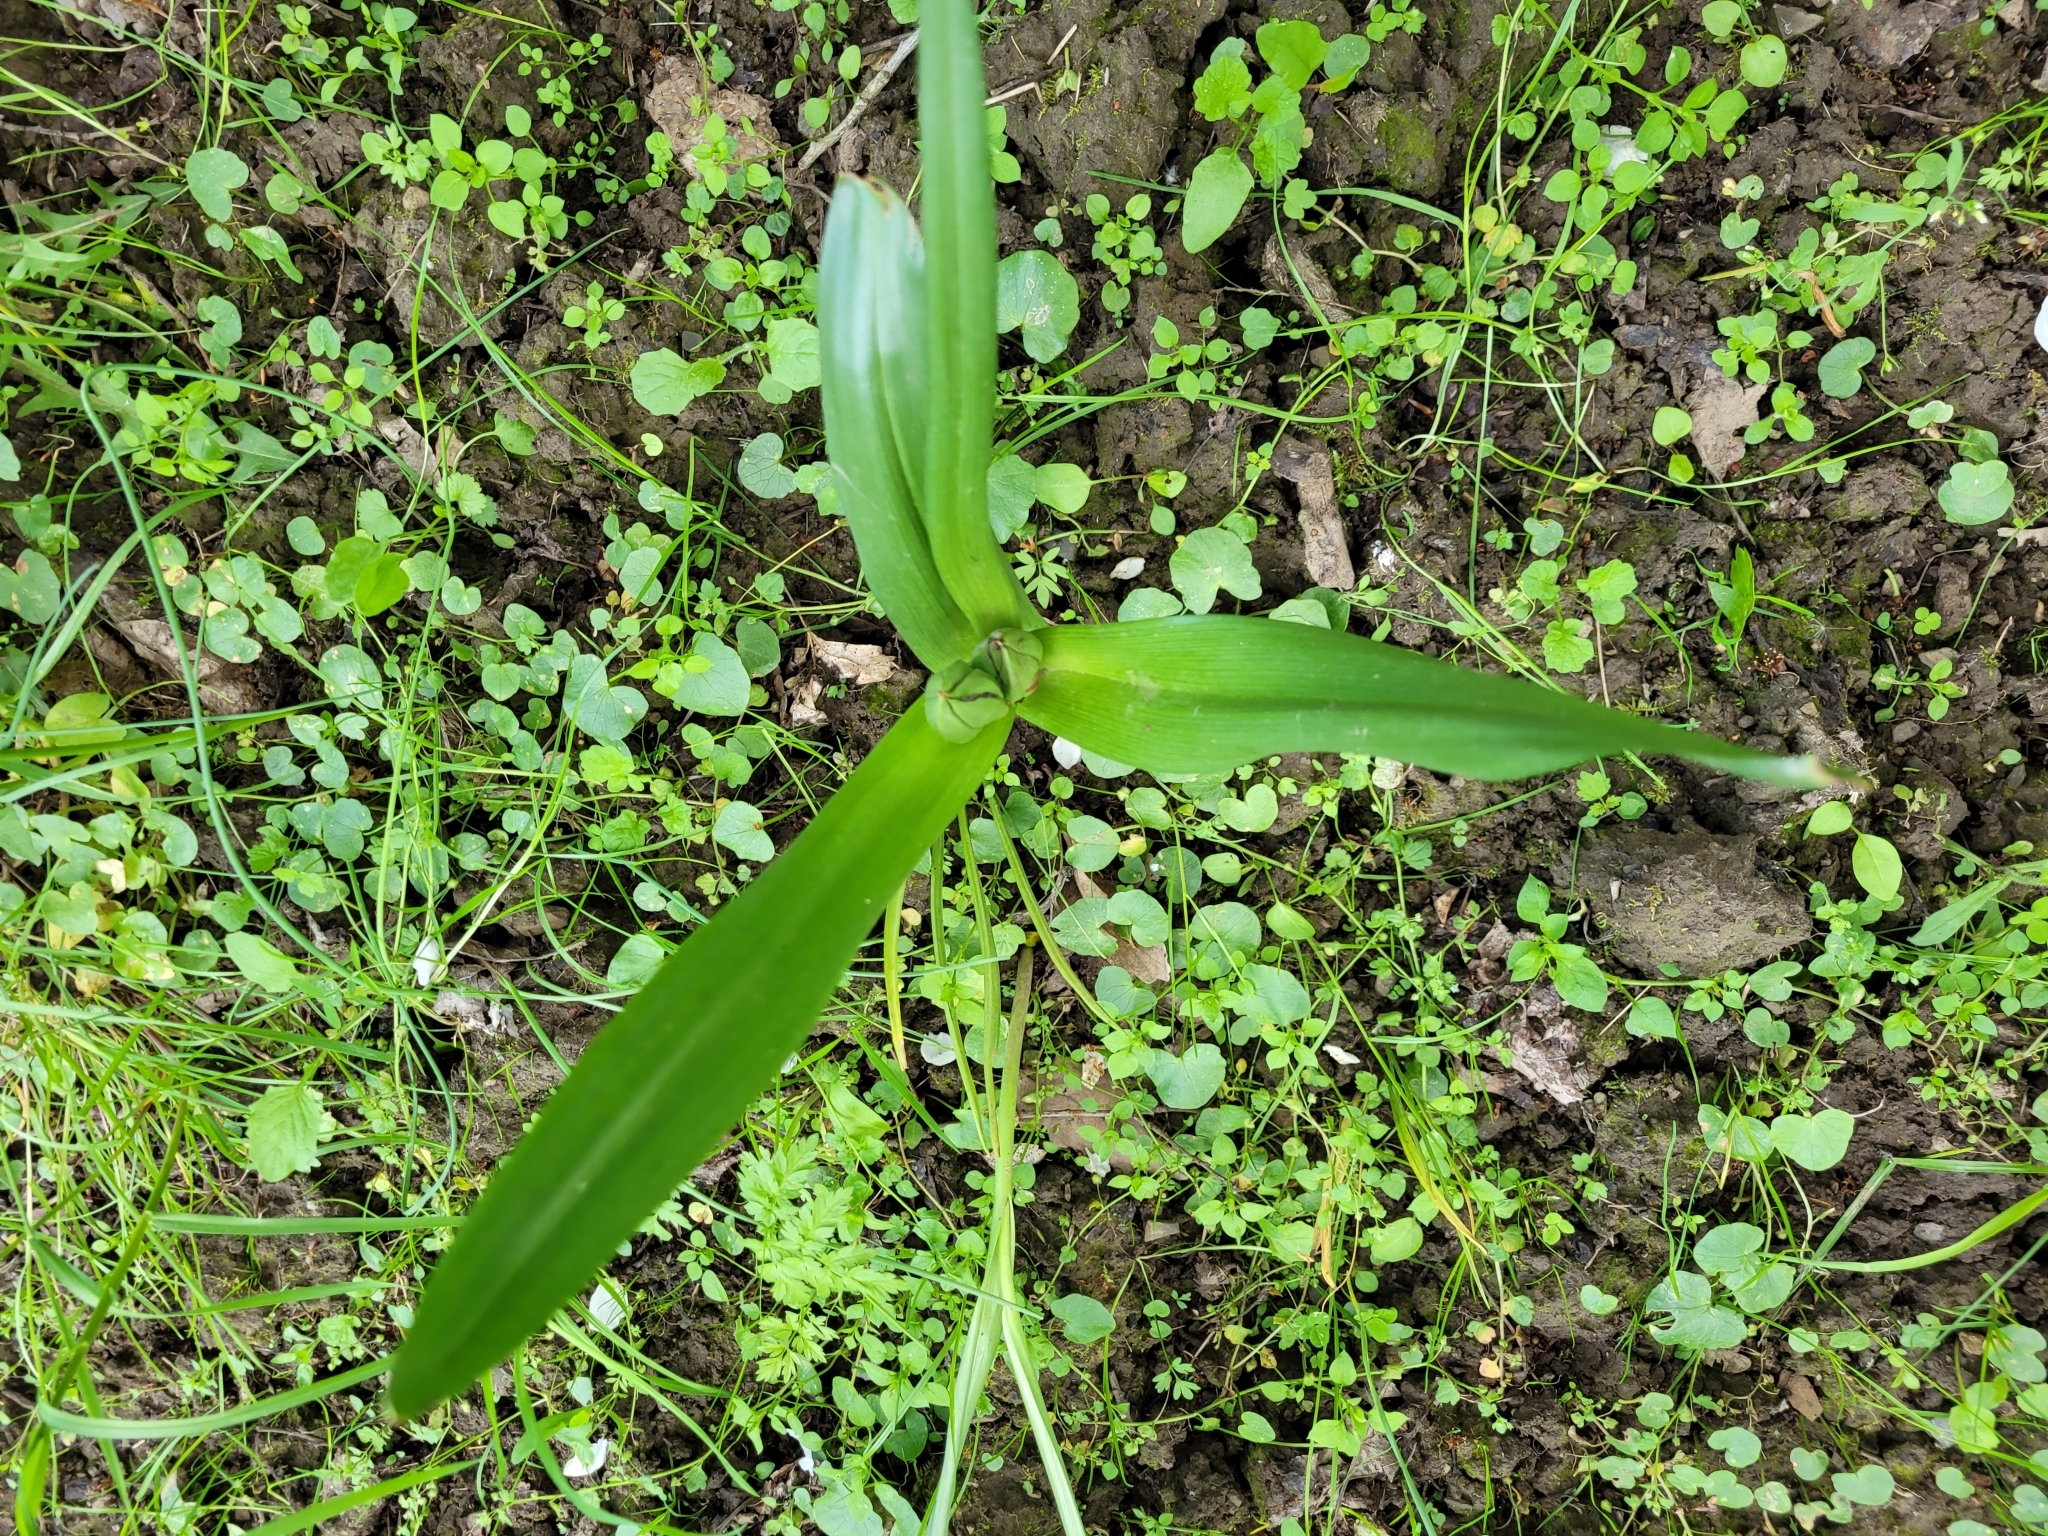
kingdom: Plantae
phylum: Tracheophyta
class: Liliopsida
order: Liliales
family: Colchicaceae
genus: Colchicum
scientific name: Colchicum autumnale
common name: Autumn crocus
